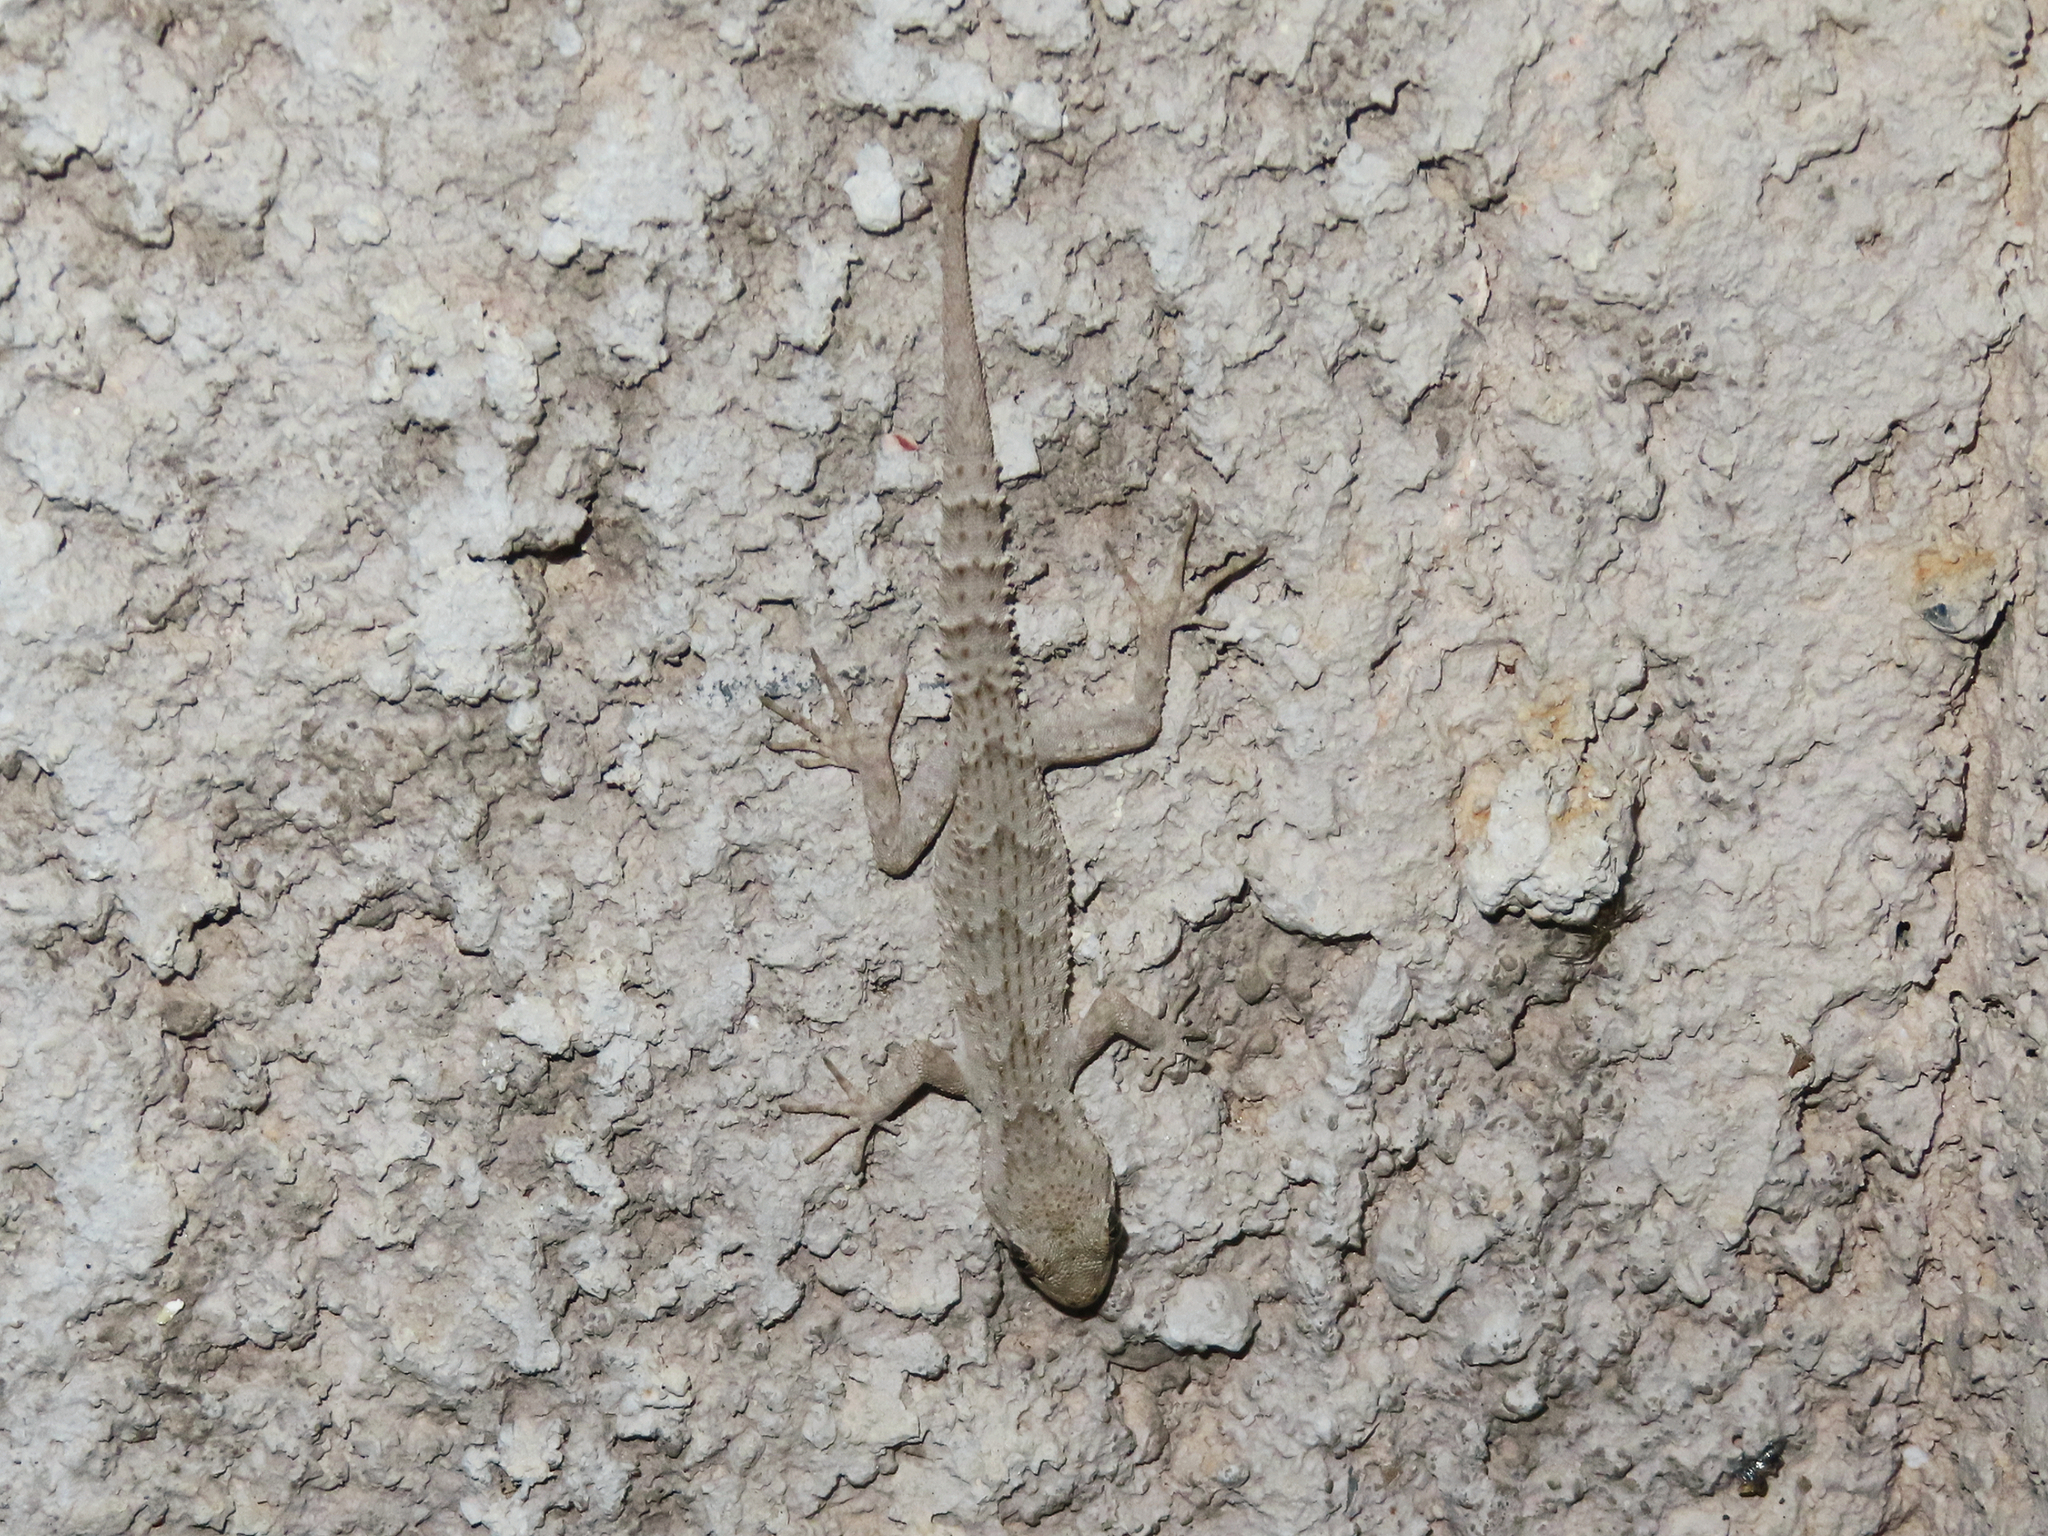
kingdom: Animalia
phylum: Chordata
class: Squamata
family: Gekkonidae
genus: Mediodactylus
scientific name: Mediodactylus kotschyi
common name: Kotschy's gecko
